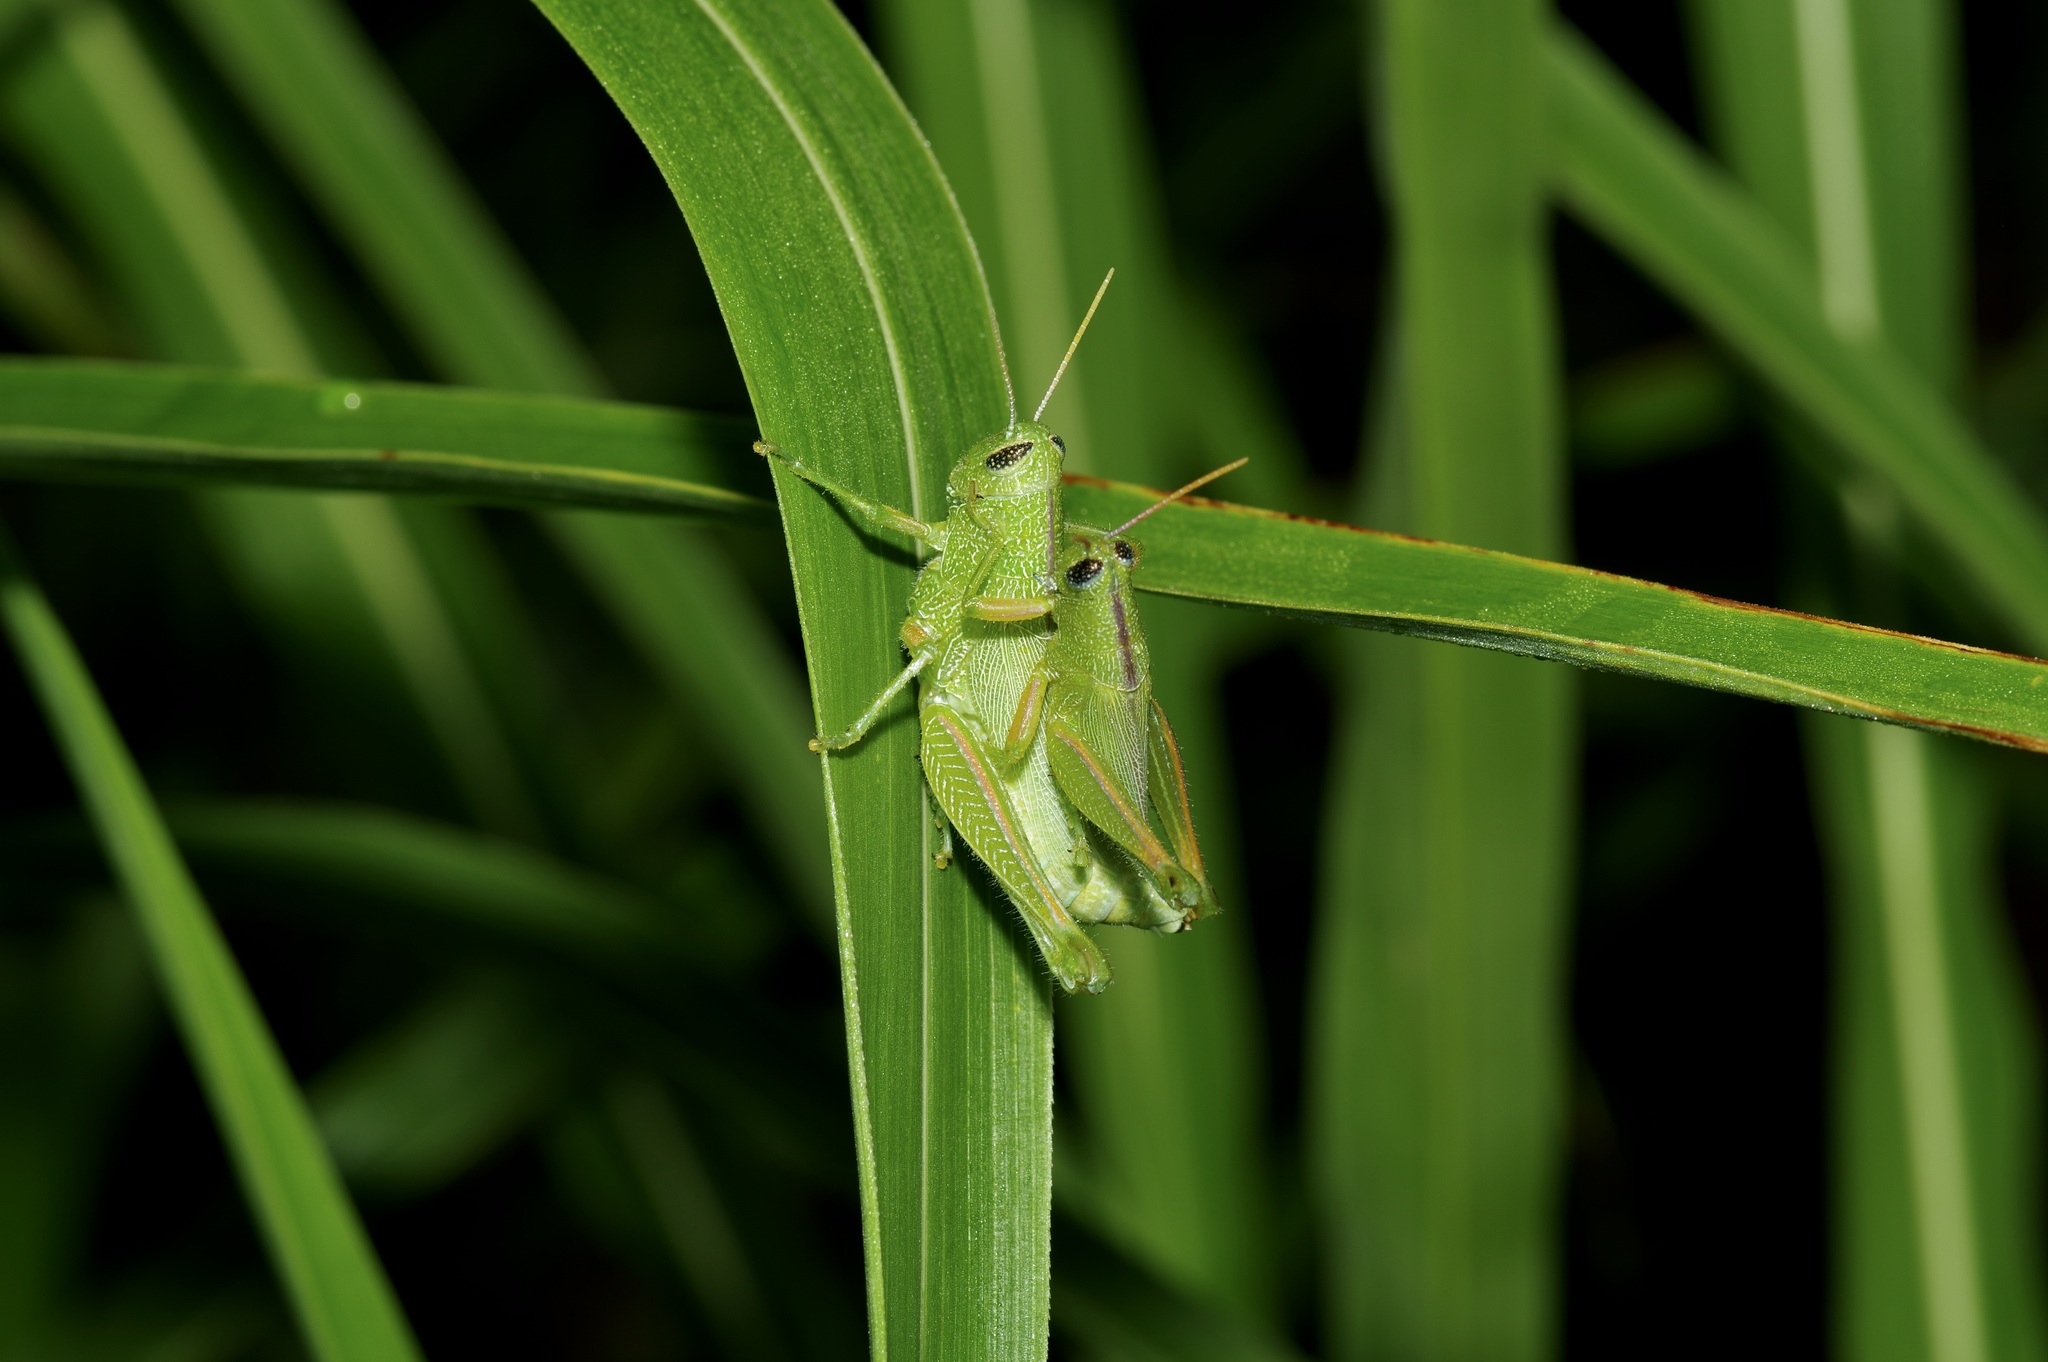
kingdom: Animalia
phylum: Arthropoda
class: Insecta
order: Orthoptera
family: Acrididae
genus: Hesperotettix
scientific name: Hesperotettix speciosus
